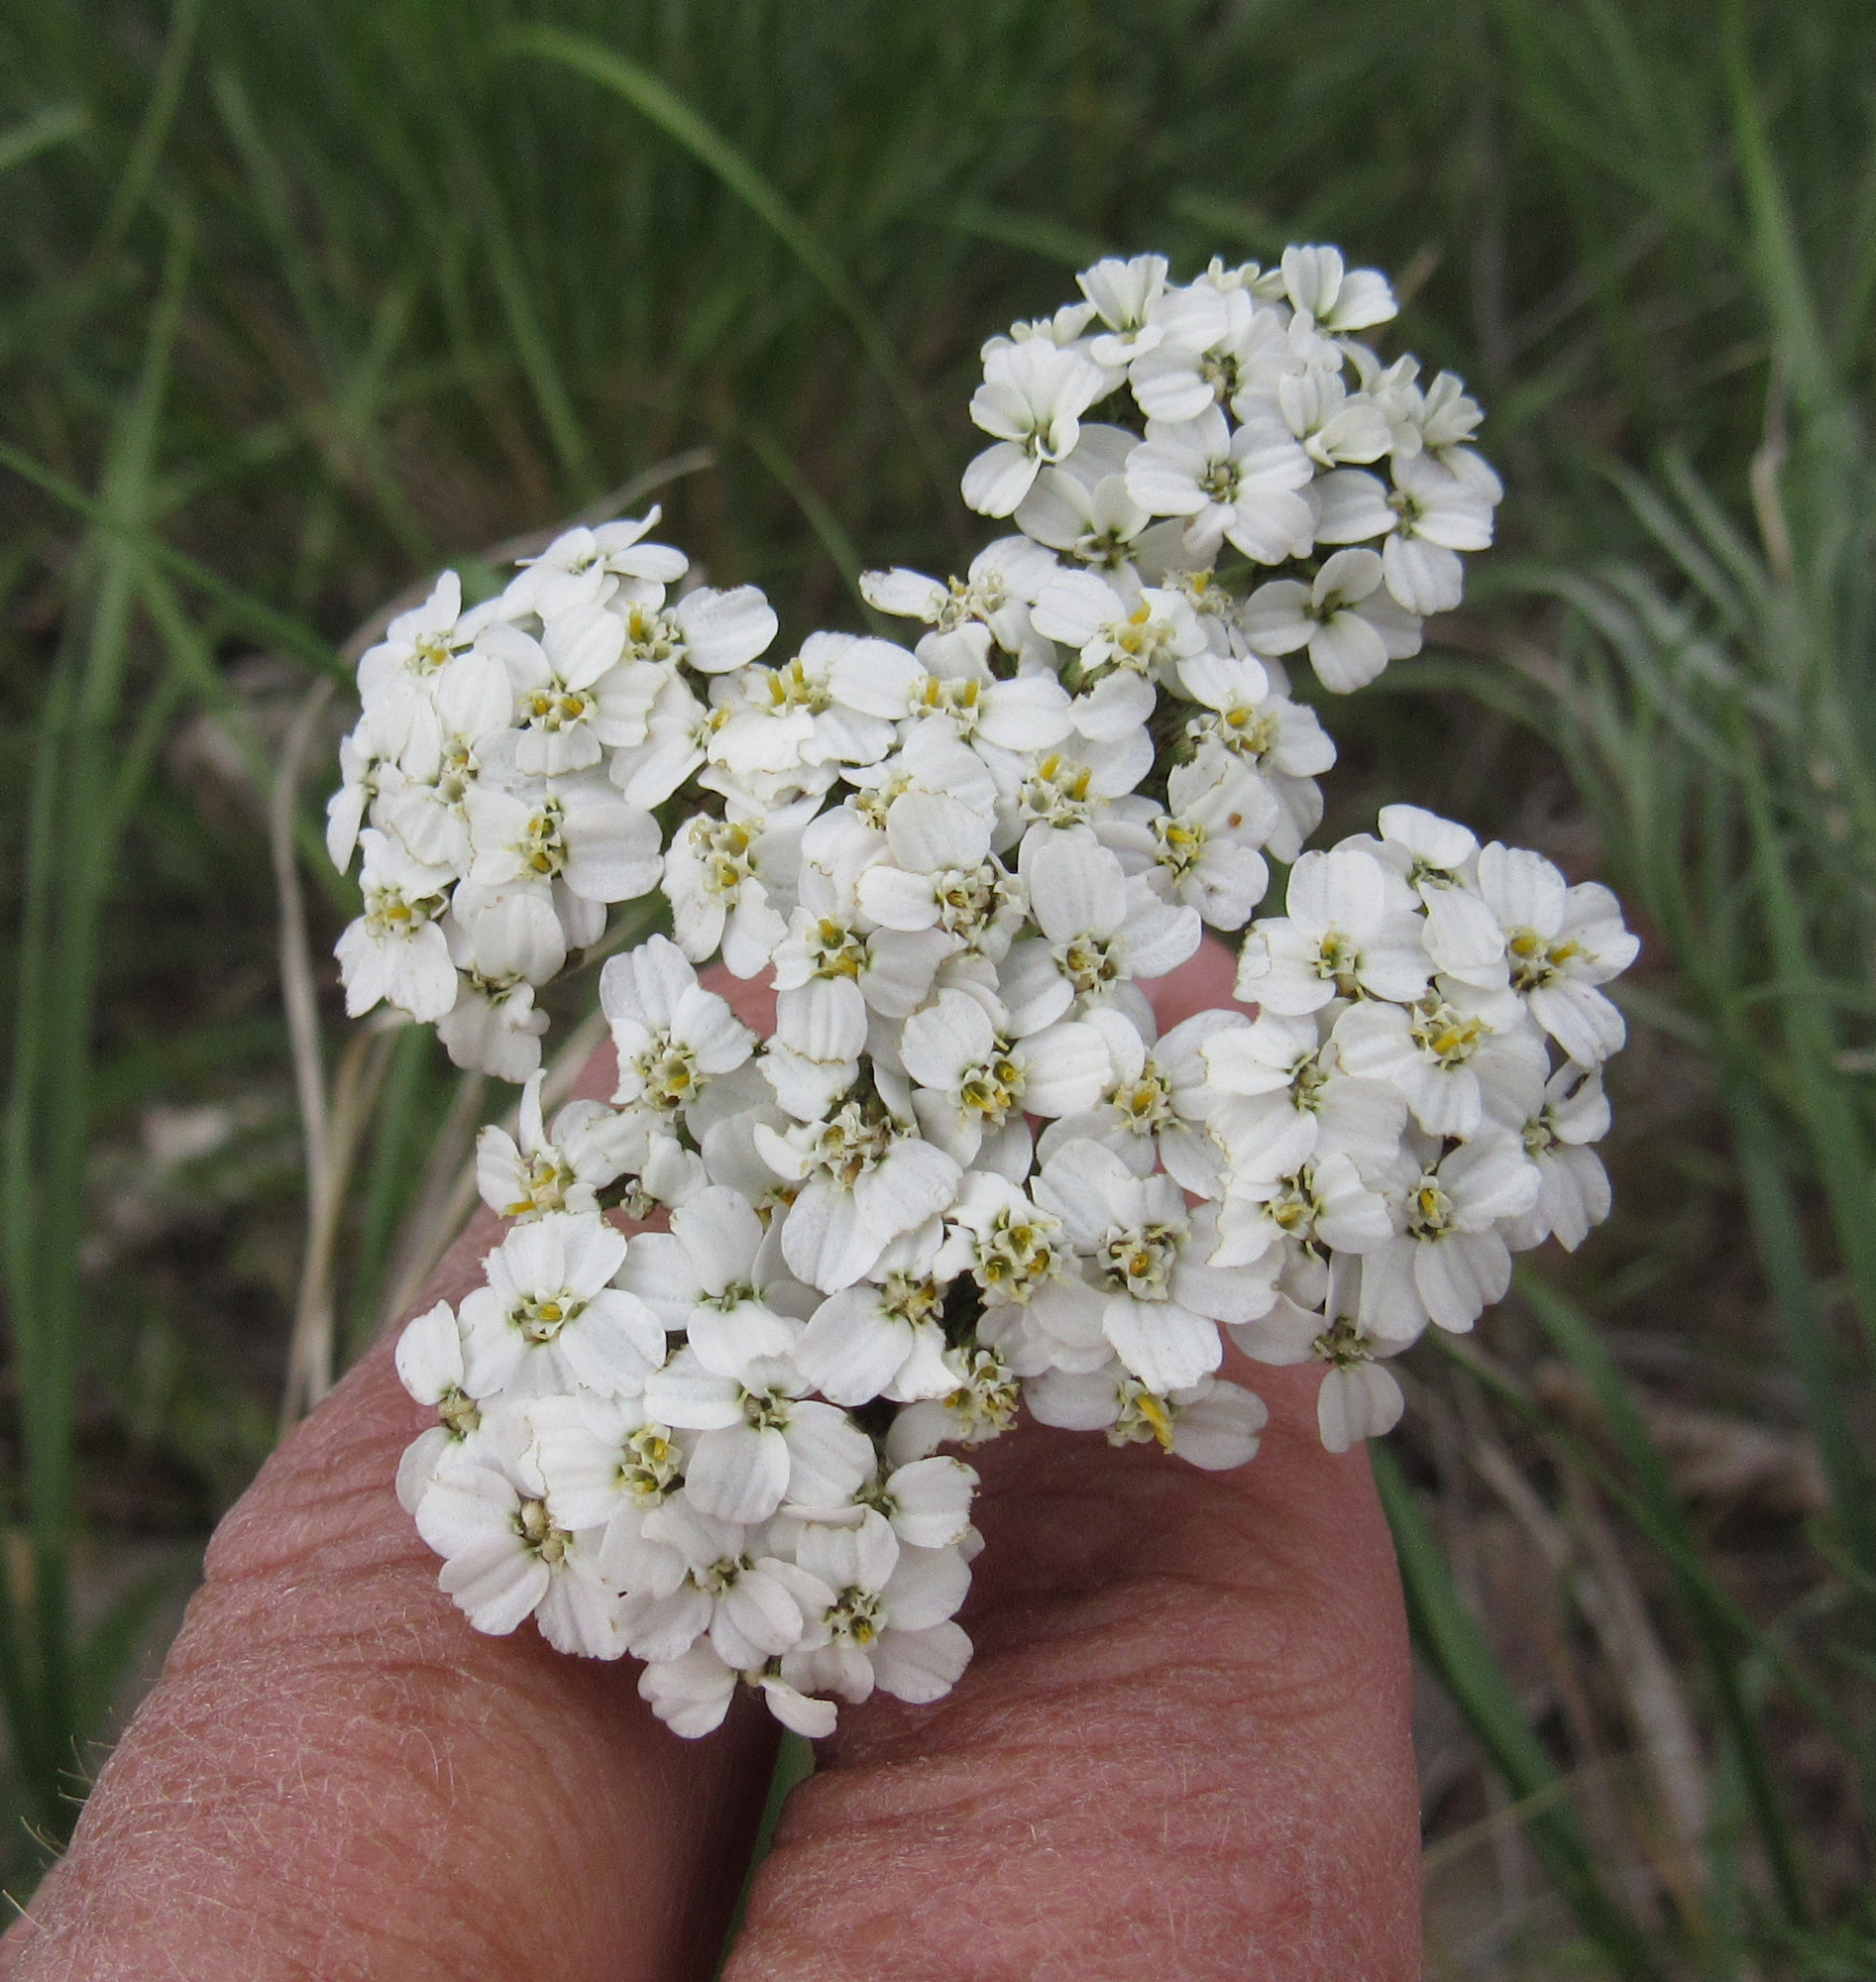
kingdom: Plantae
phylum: Tracheophyta
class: Magnoliopsida
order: Asterales
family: Asteraceae
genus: Achillea
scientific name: Achillea millefolium
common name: Yarrow
